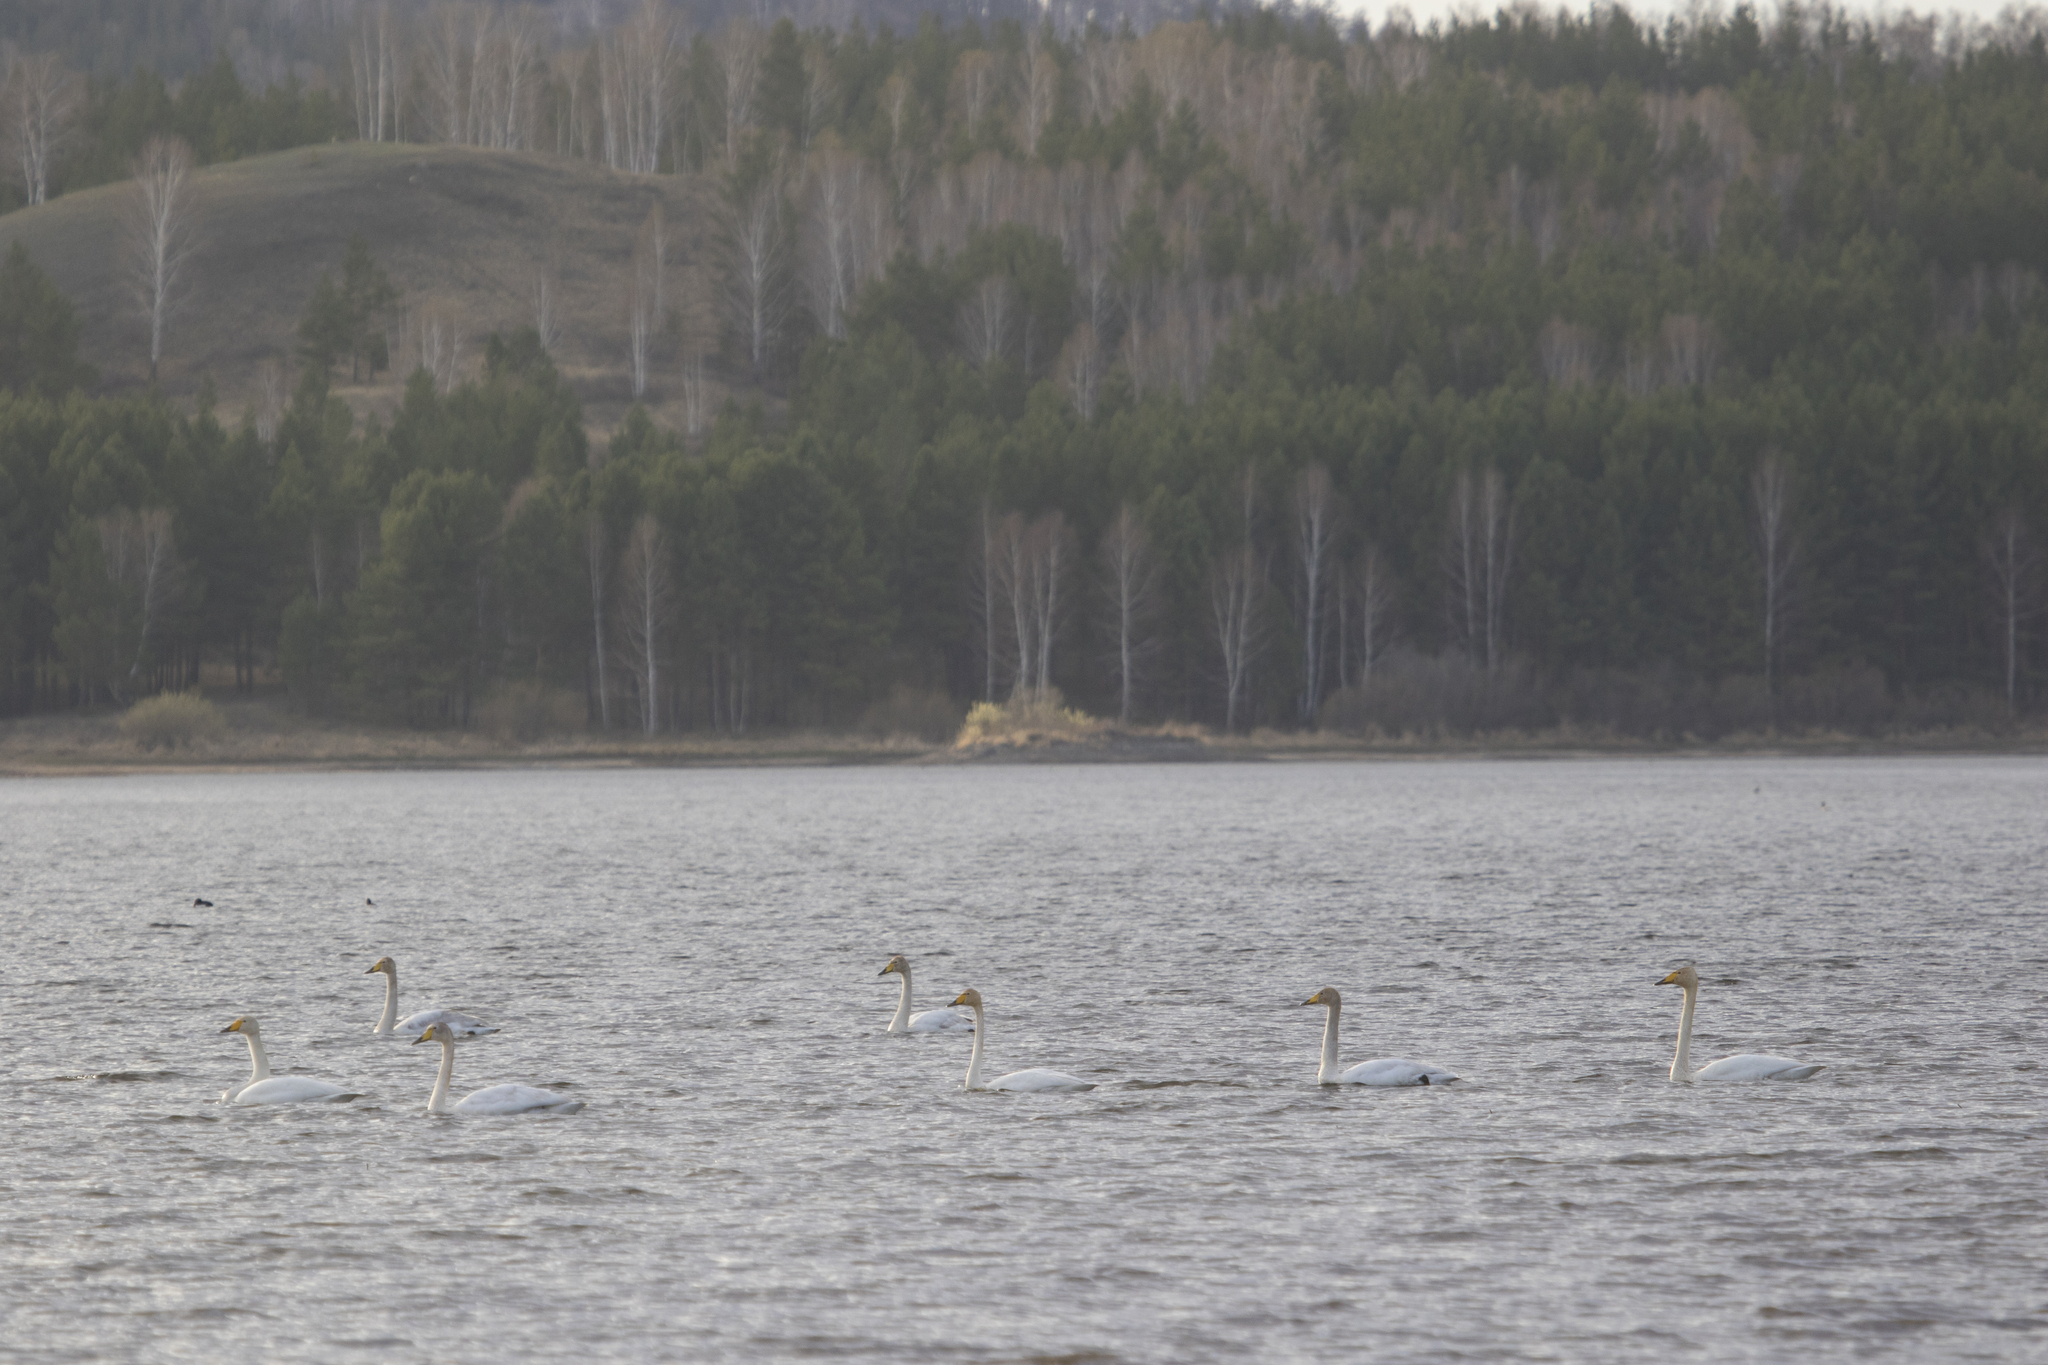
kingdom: Animalia
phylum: Chordata
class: Aves
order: Anseriformes
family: Anatidae
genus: Cygnus
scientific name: Cygnus cygnus
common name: Whooper swan
